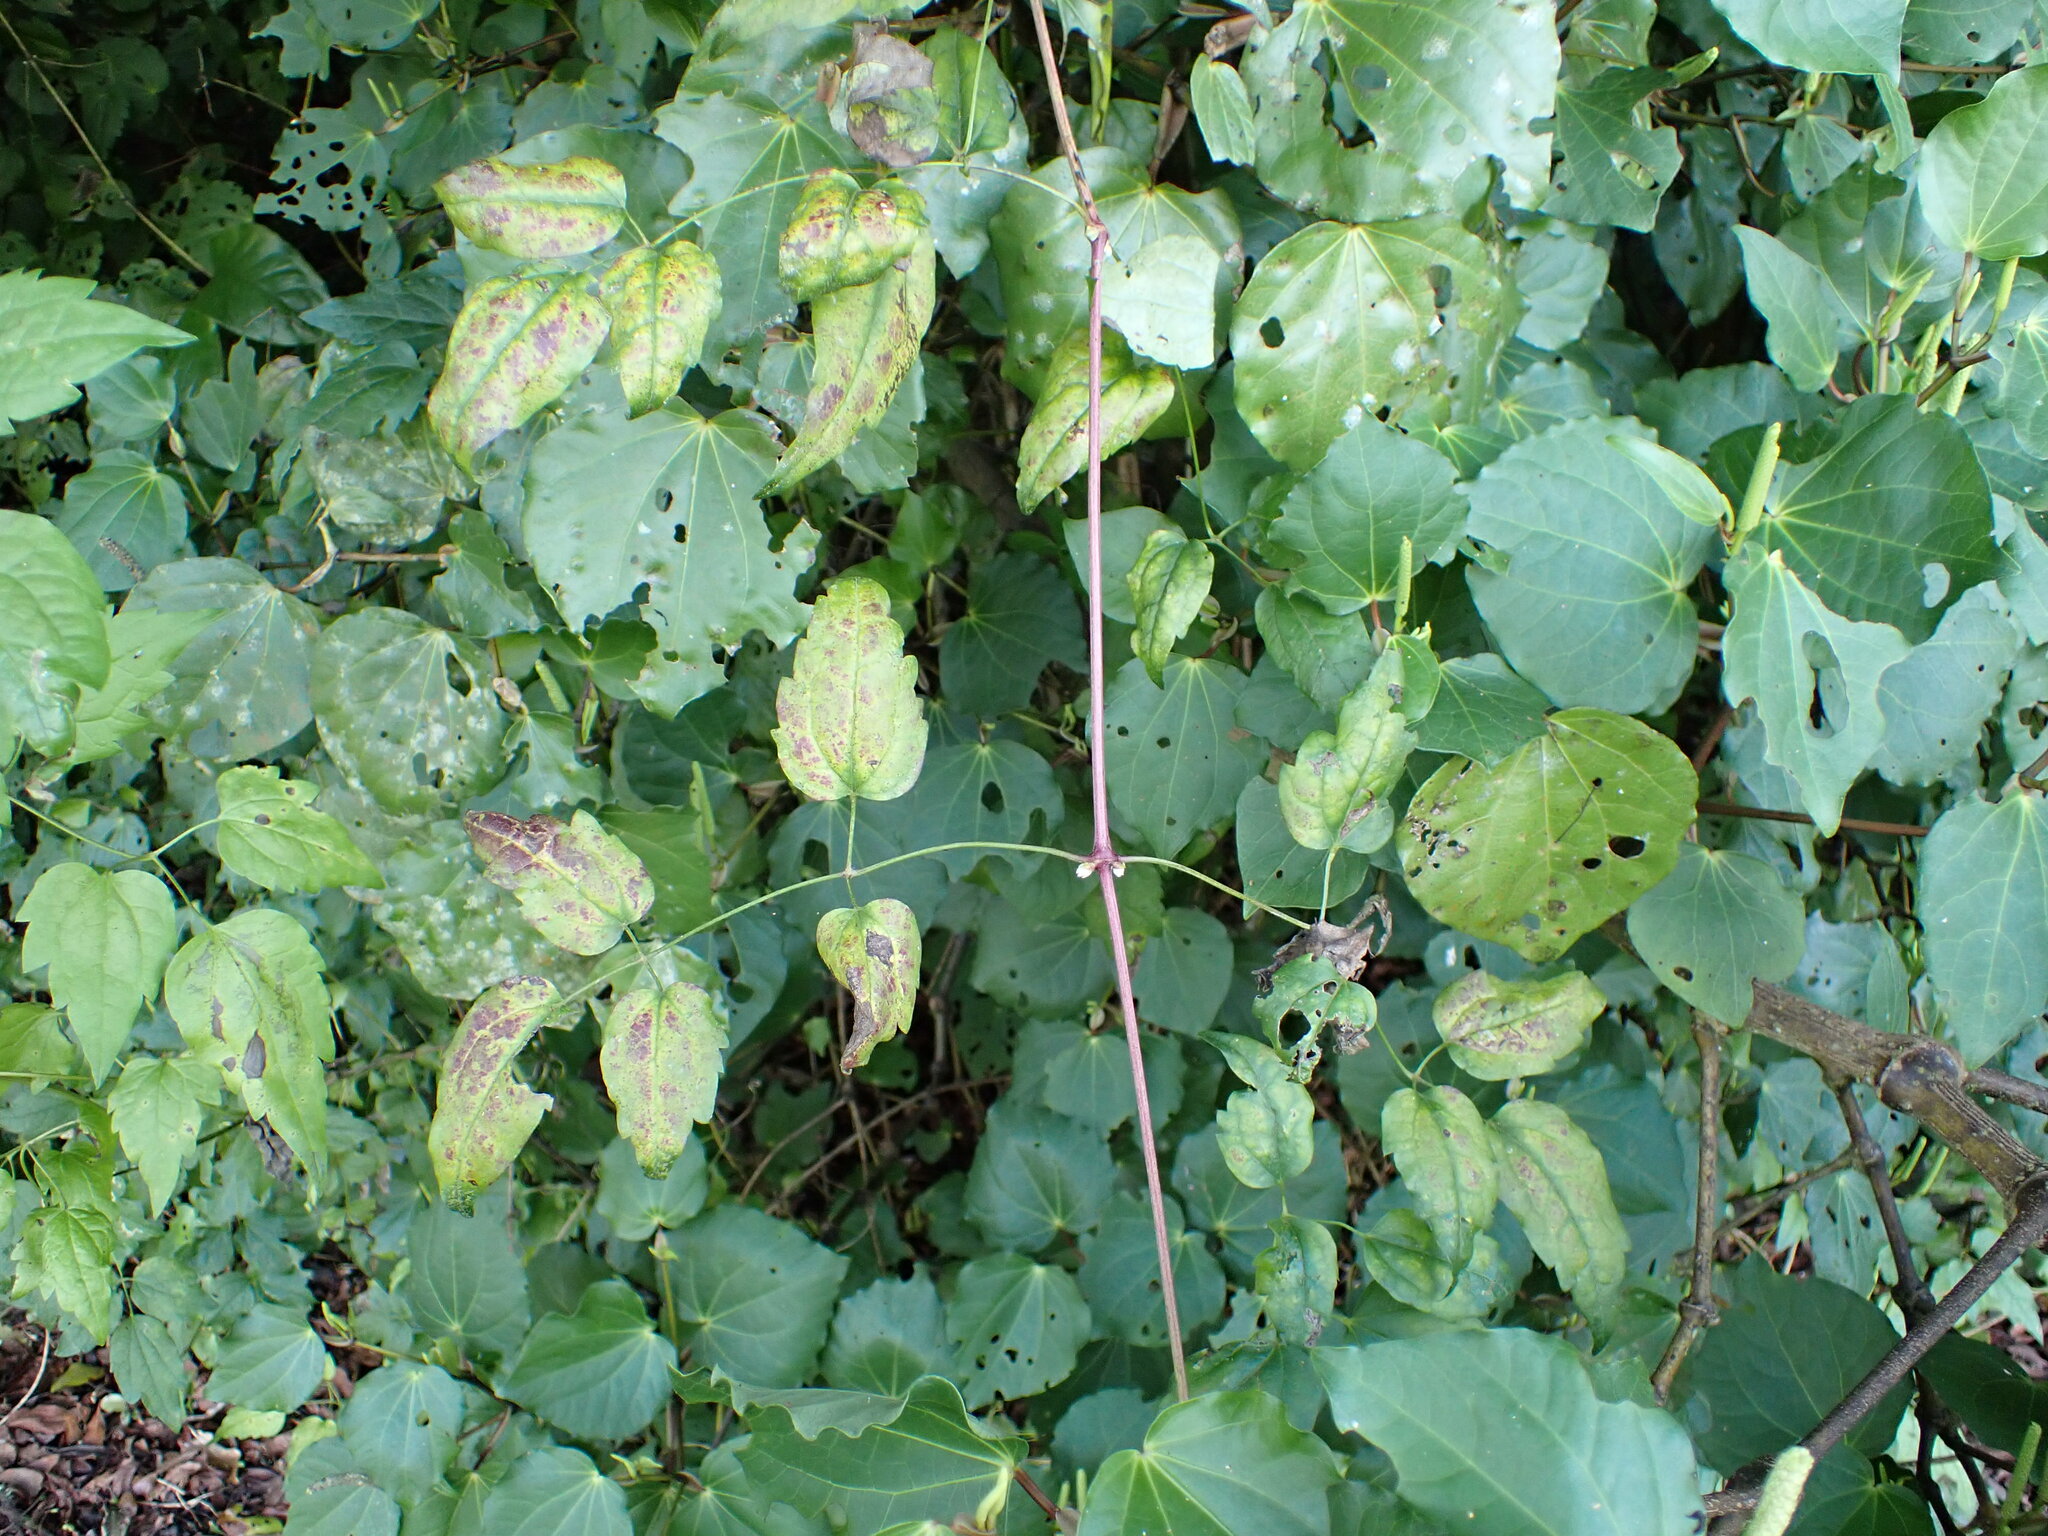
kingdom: Plantae
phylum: Tracheophyta
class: Magnoliopsida
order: Ranunculales
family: Ranunculaceae
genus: Clematis
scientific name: Clematis vitalba
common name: Evergreen clematis
